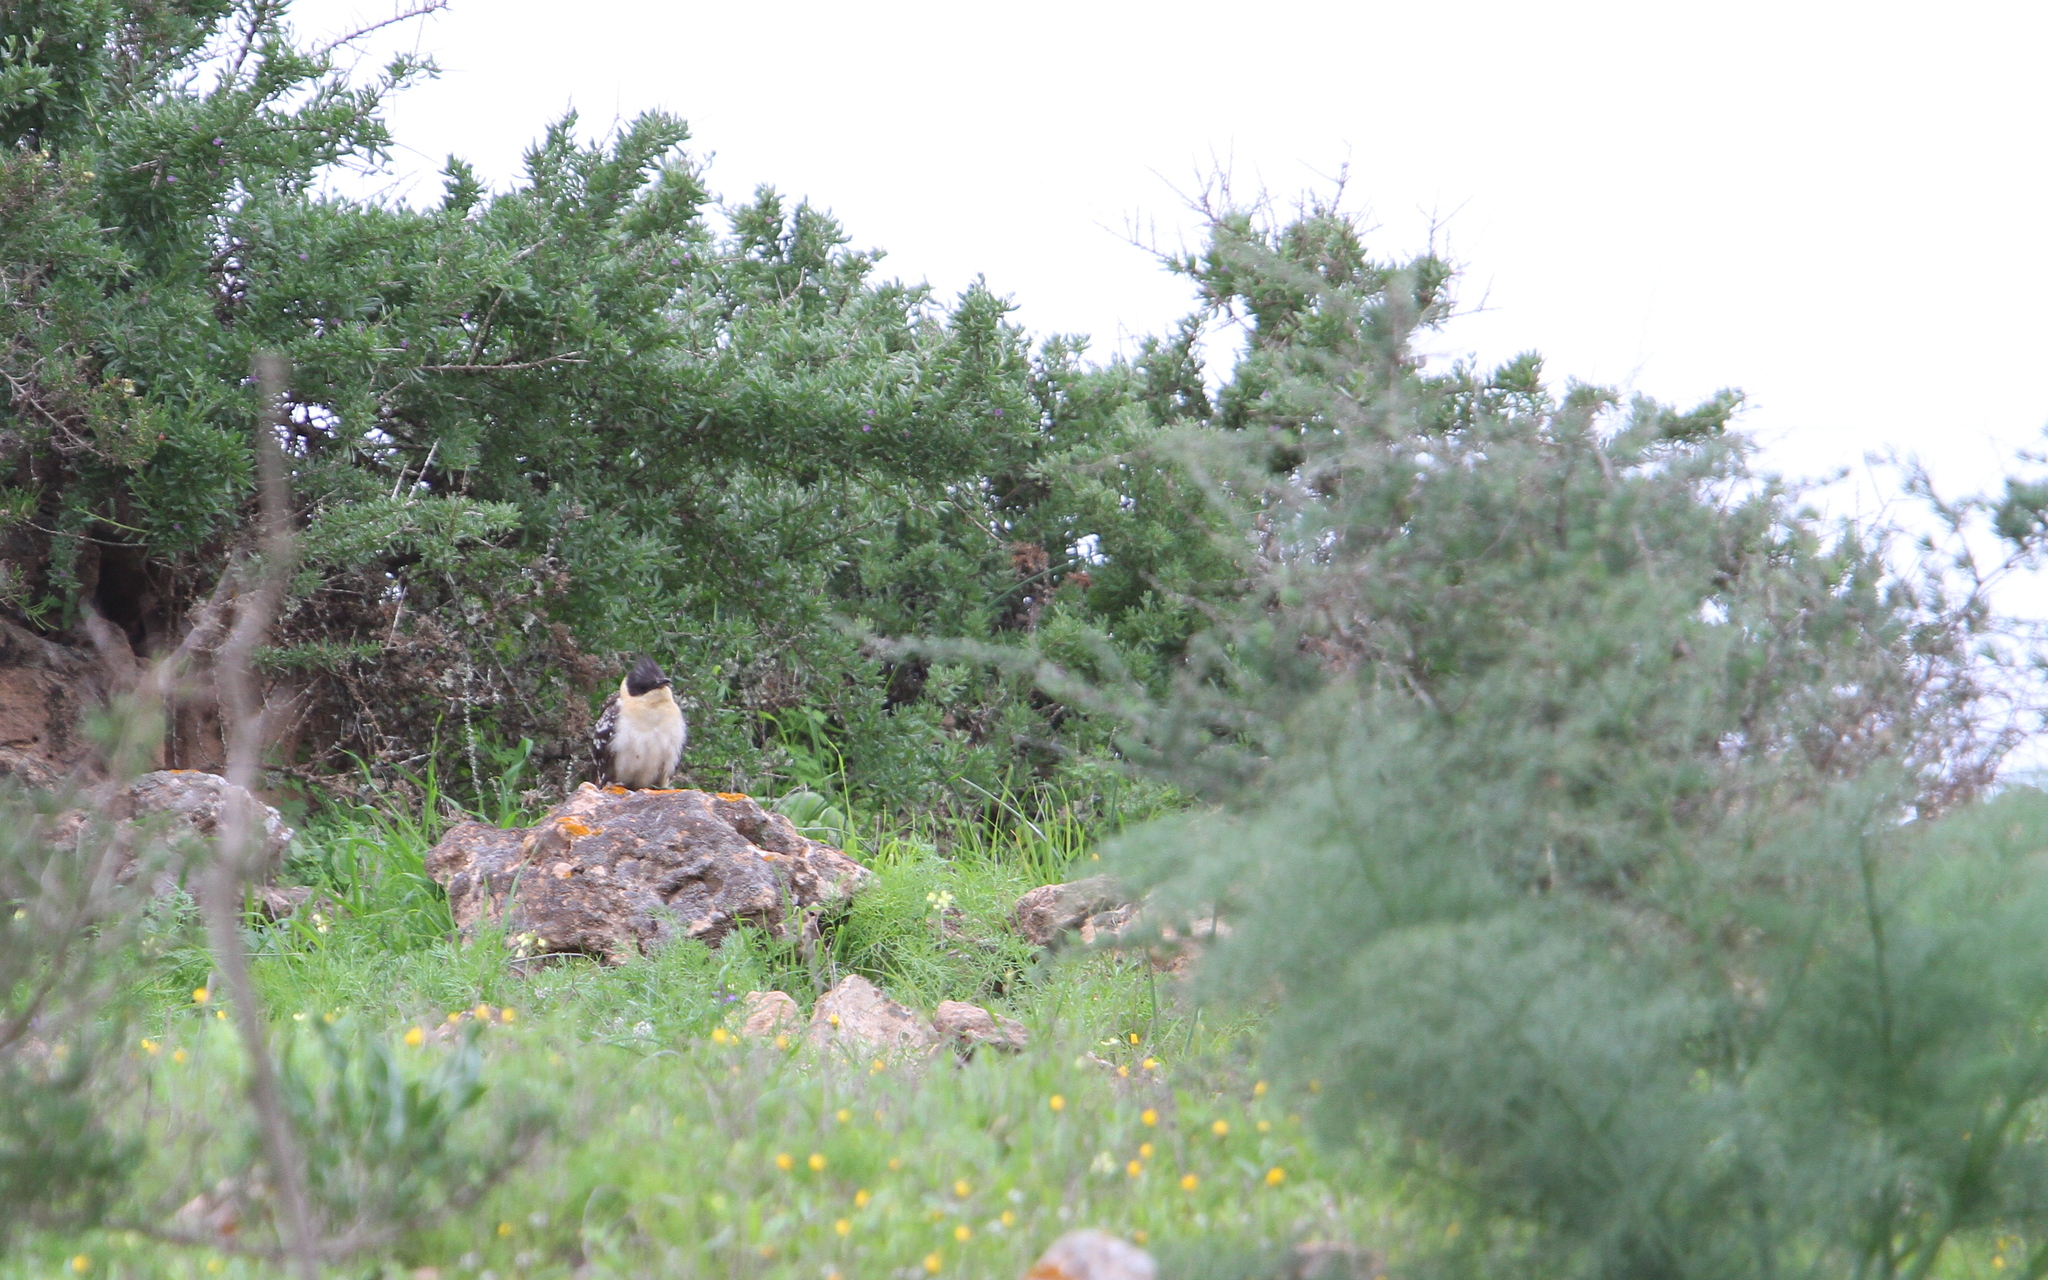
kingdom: Animalia
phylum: Chordata
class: Aves
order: Cuculiformes
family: Cuculidae
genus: Clamator
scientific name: Clamator glandarius
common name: Great spotted cuckoo
